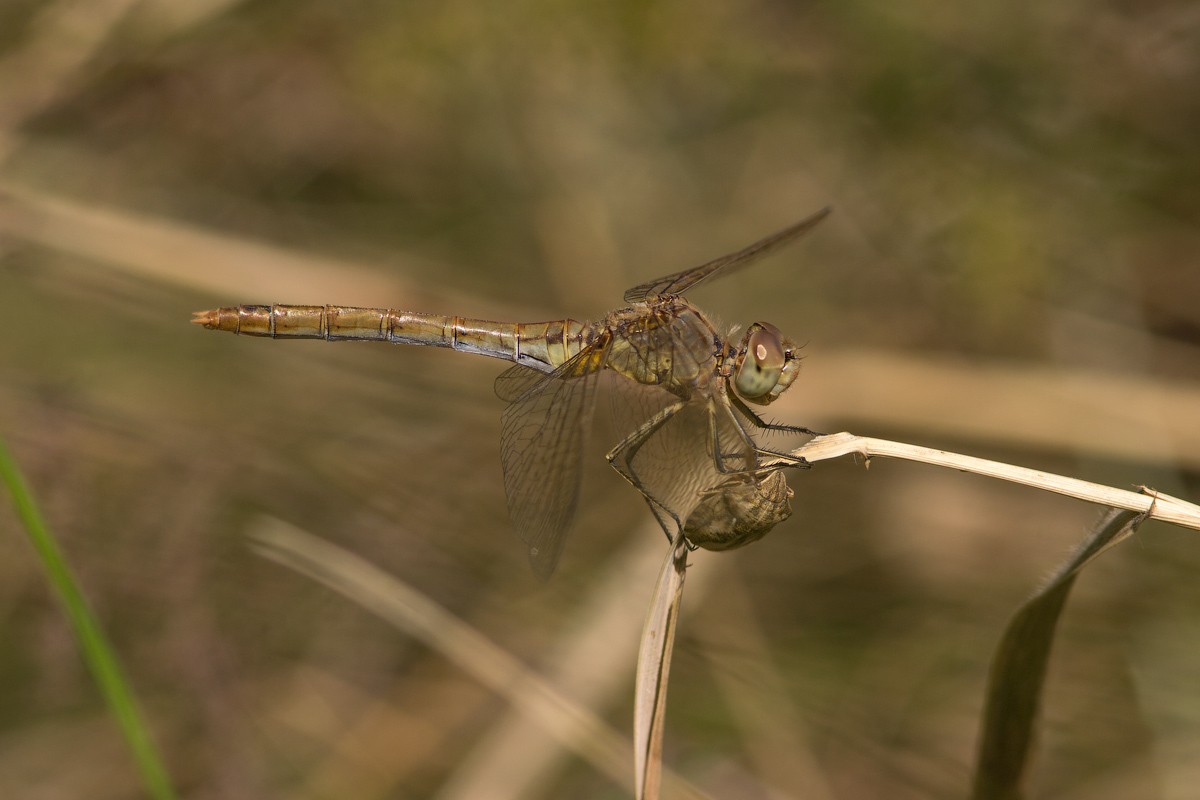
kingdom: Animalia
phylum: Arthropoda
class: Insecta
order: Odonata
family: Libellulidae
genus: Sympetrum
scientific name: Sympetrum meridionale
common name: Southern darter
